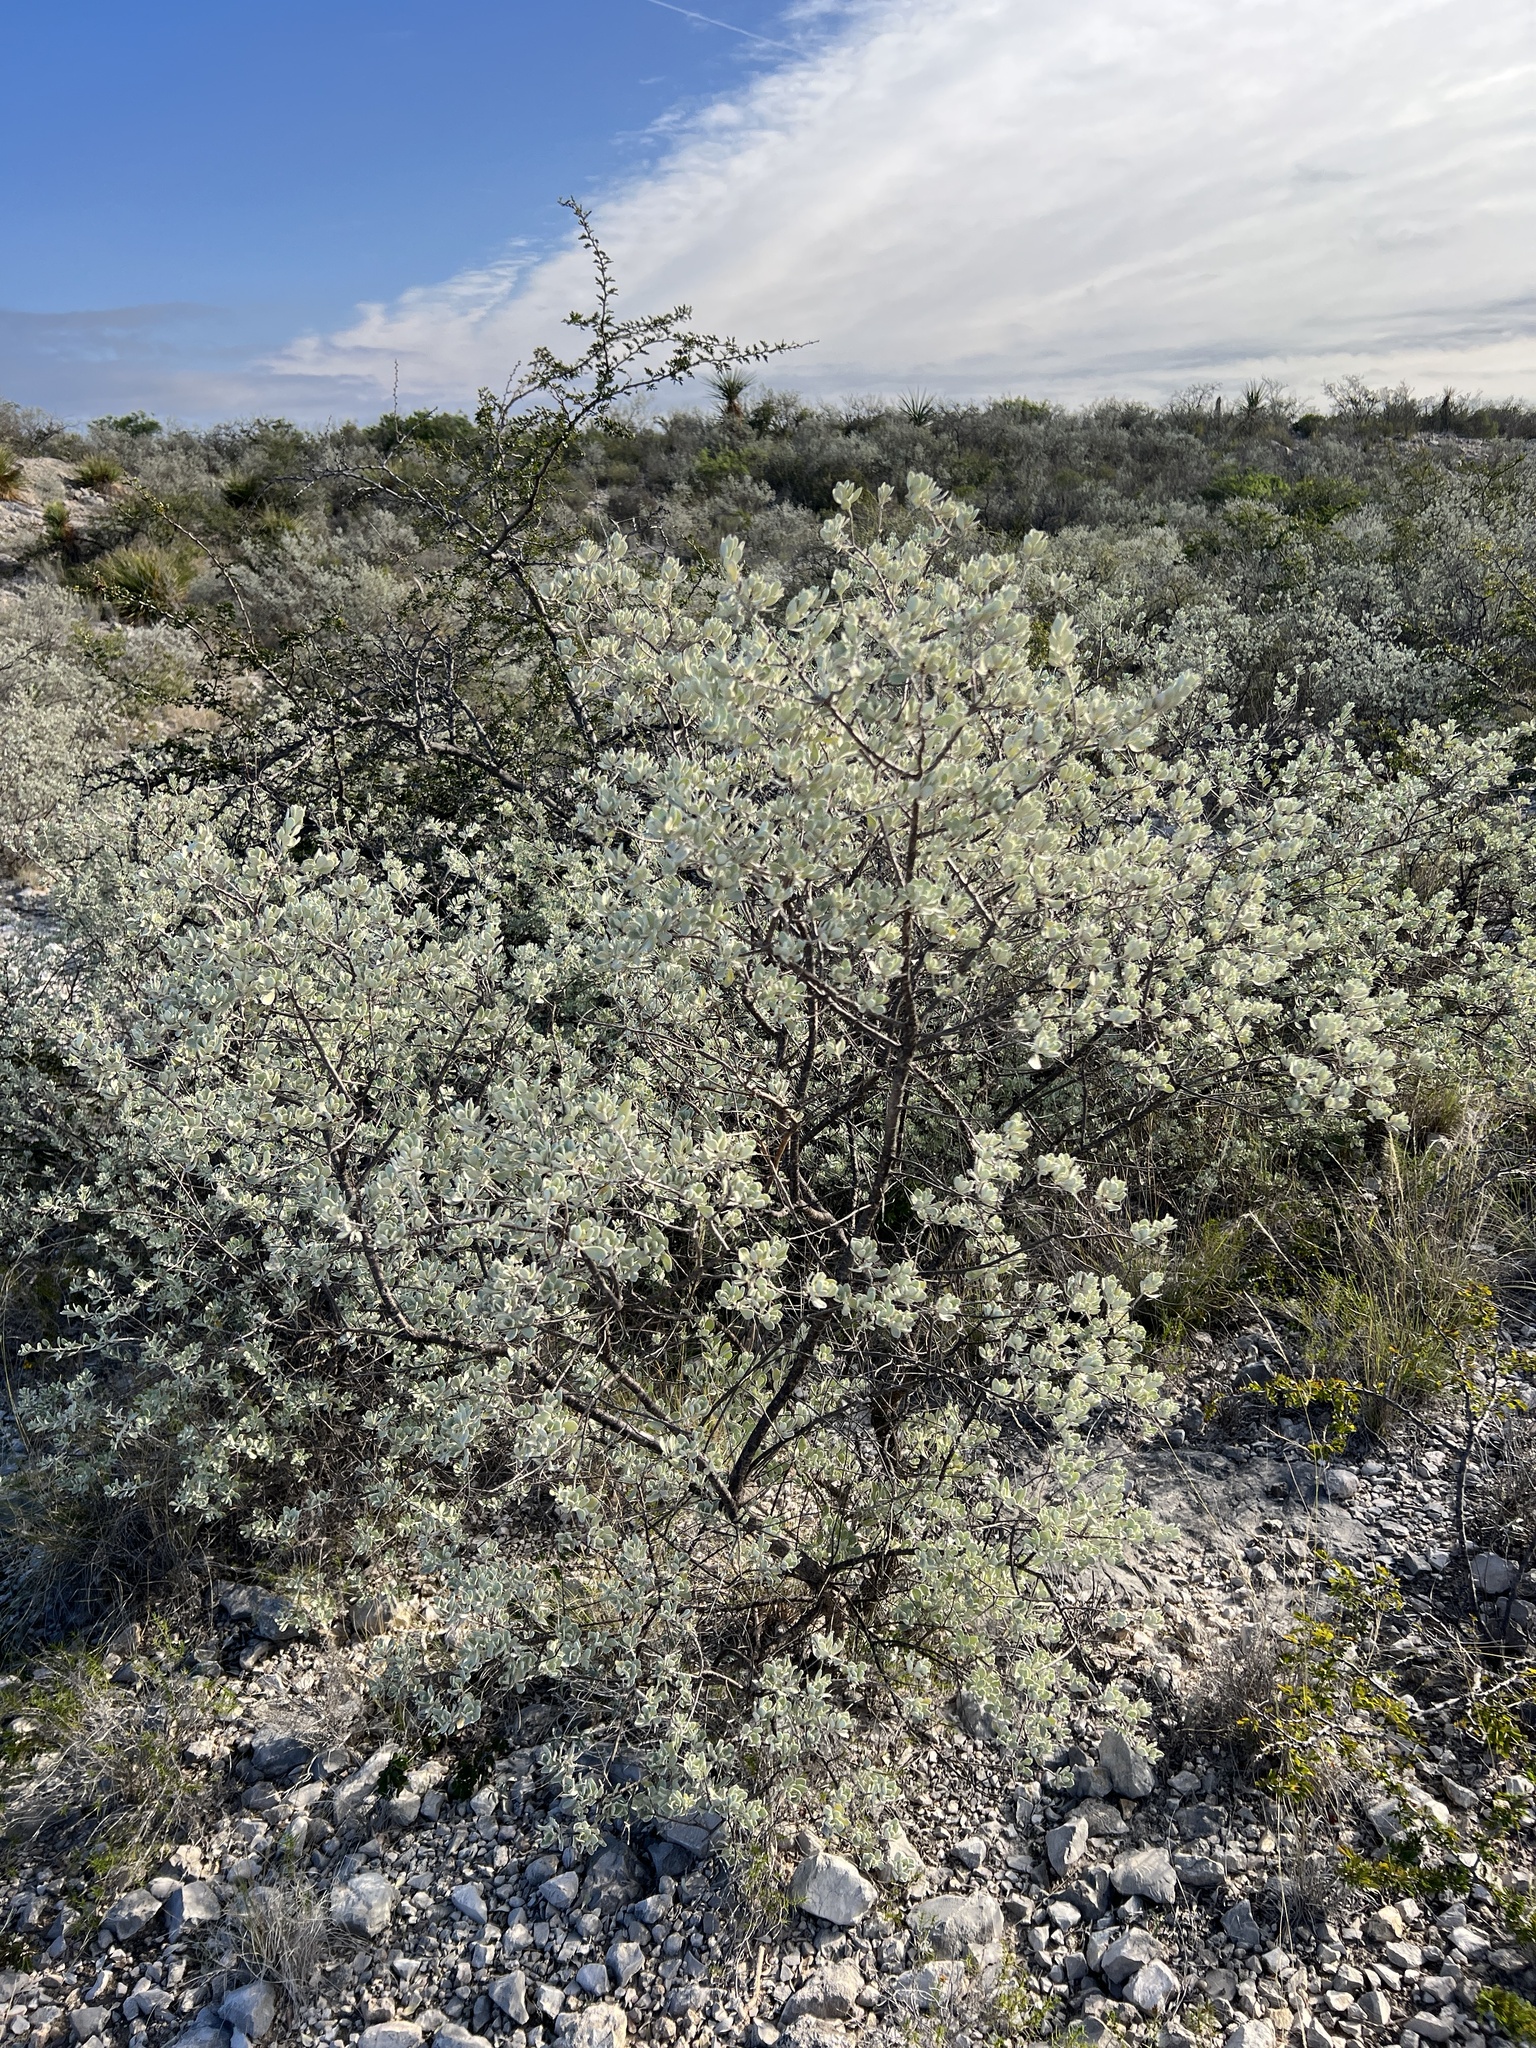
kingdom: Plantae
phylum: Tracheophyta
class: Magnoliopsida
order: Lamiales
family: Scrophulariaceae
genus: Leucophyllum
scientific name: Leucophyllum frutescens
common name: Texas silverleaf
